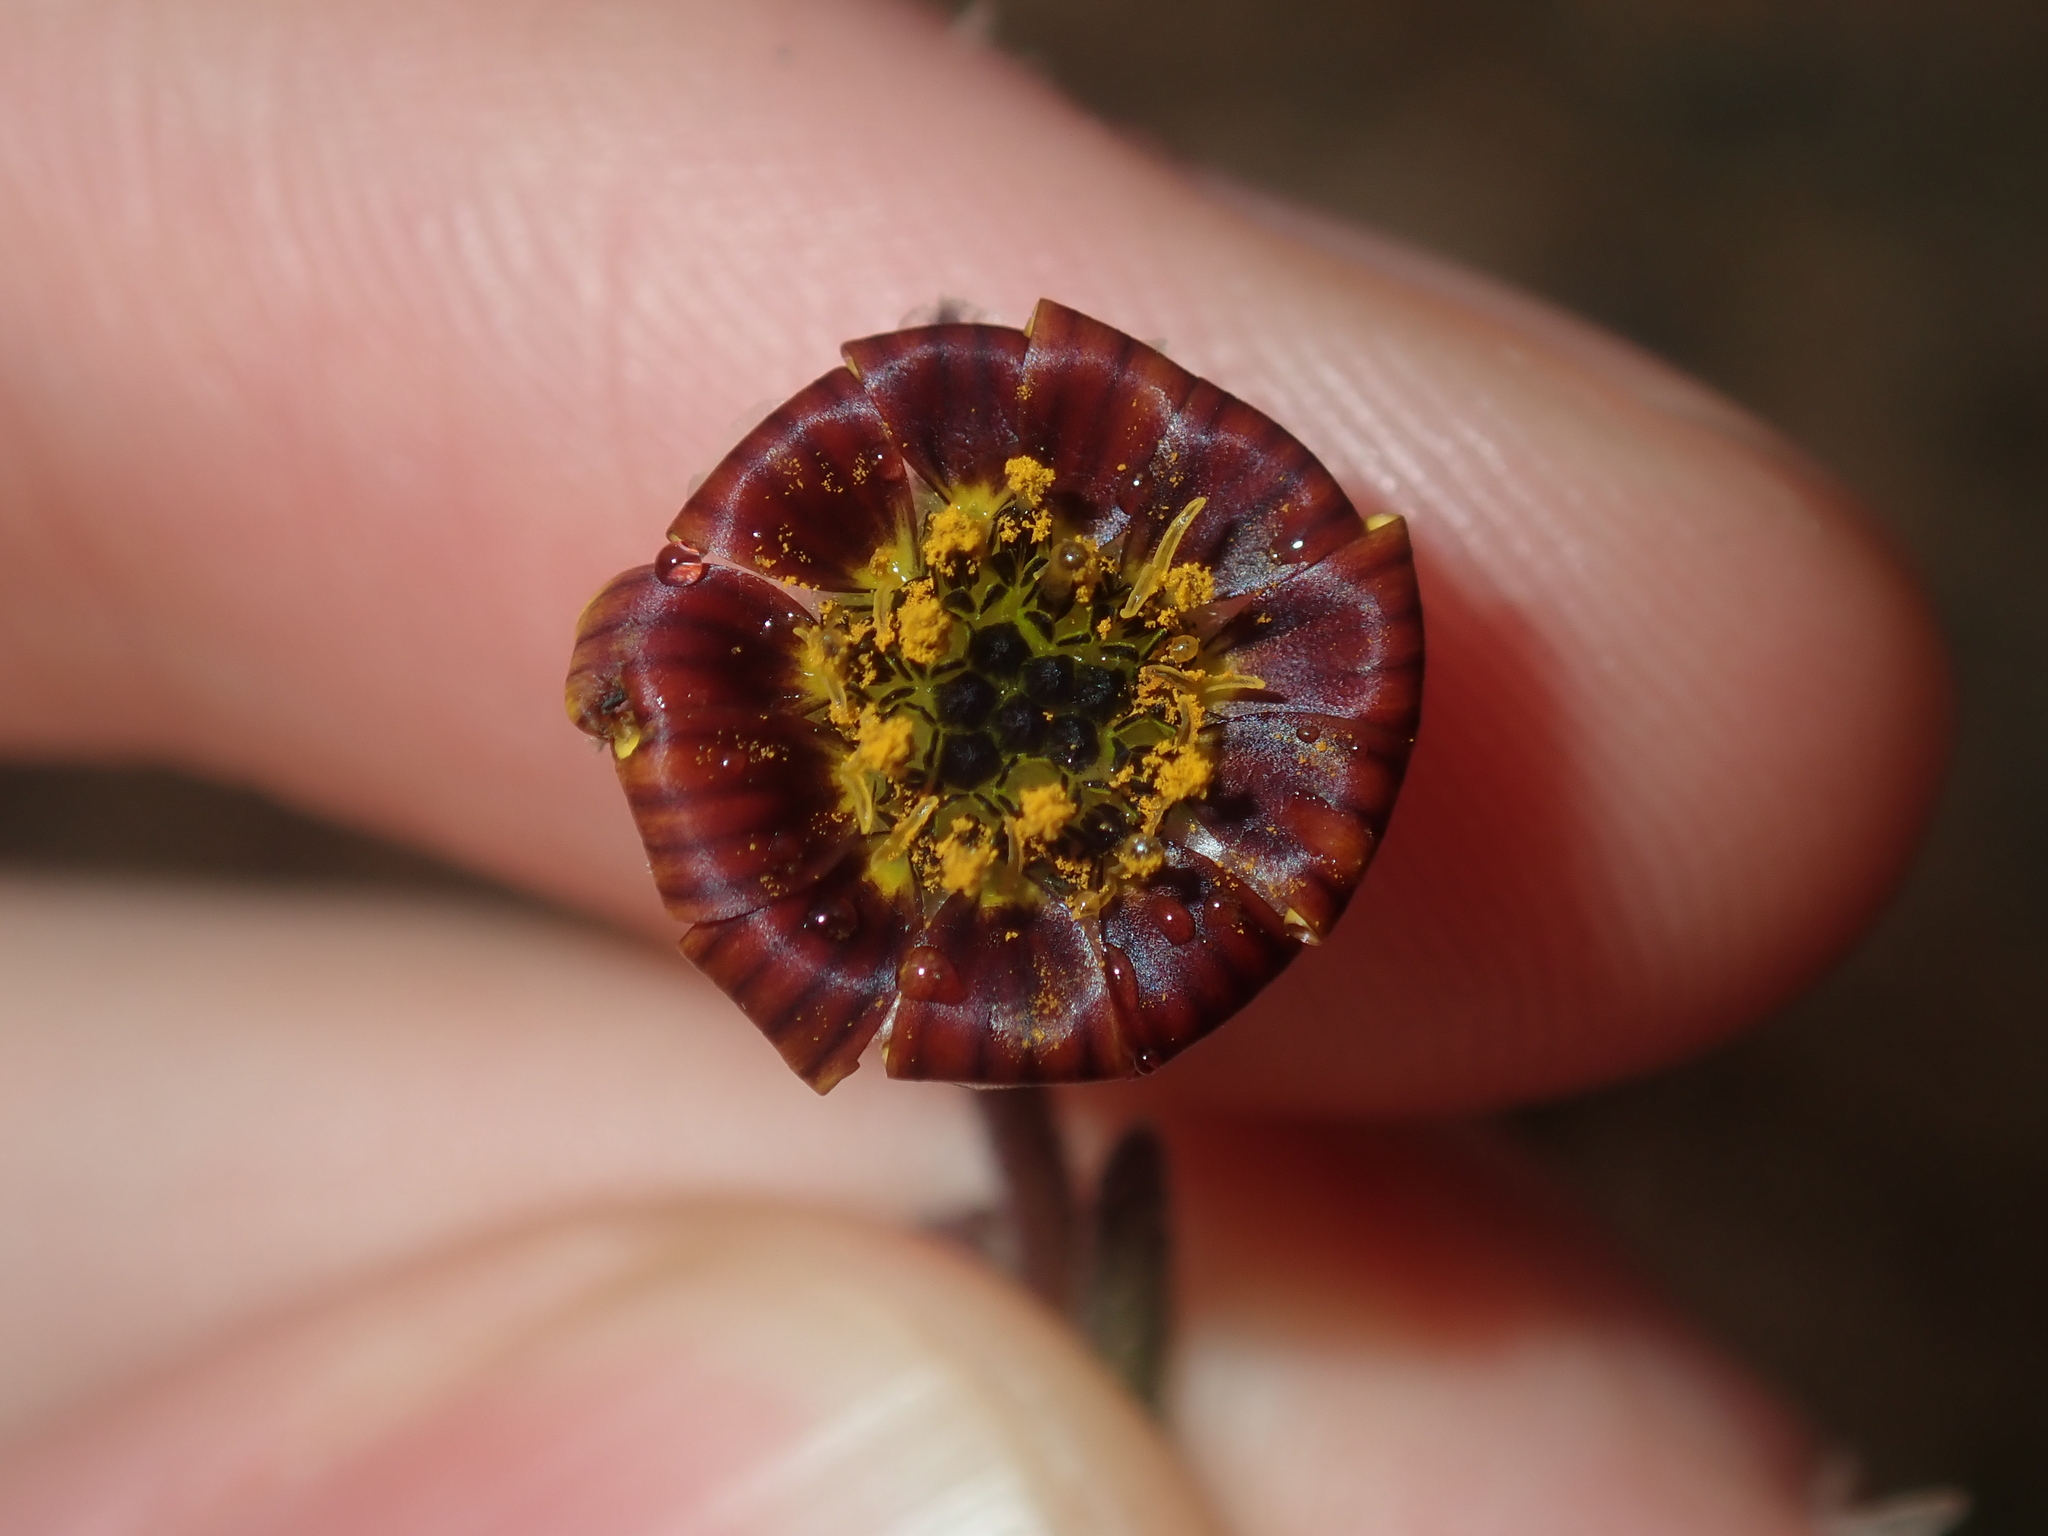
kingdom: Plantae
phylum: Tracheophyta
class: Magnoliopsida
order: Asterales
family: Asteraceae
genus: Osteospermum
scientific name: Osteospermum monstrosum
